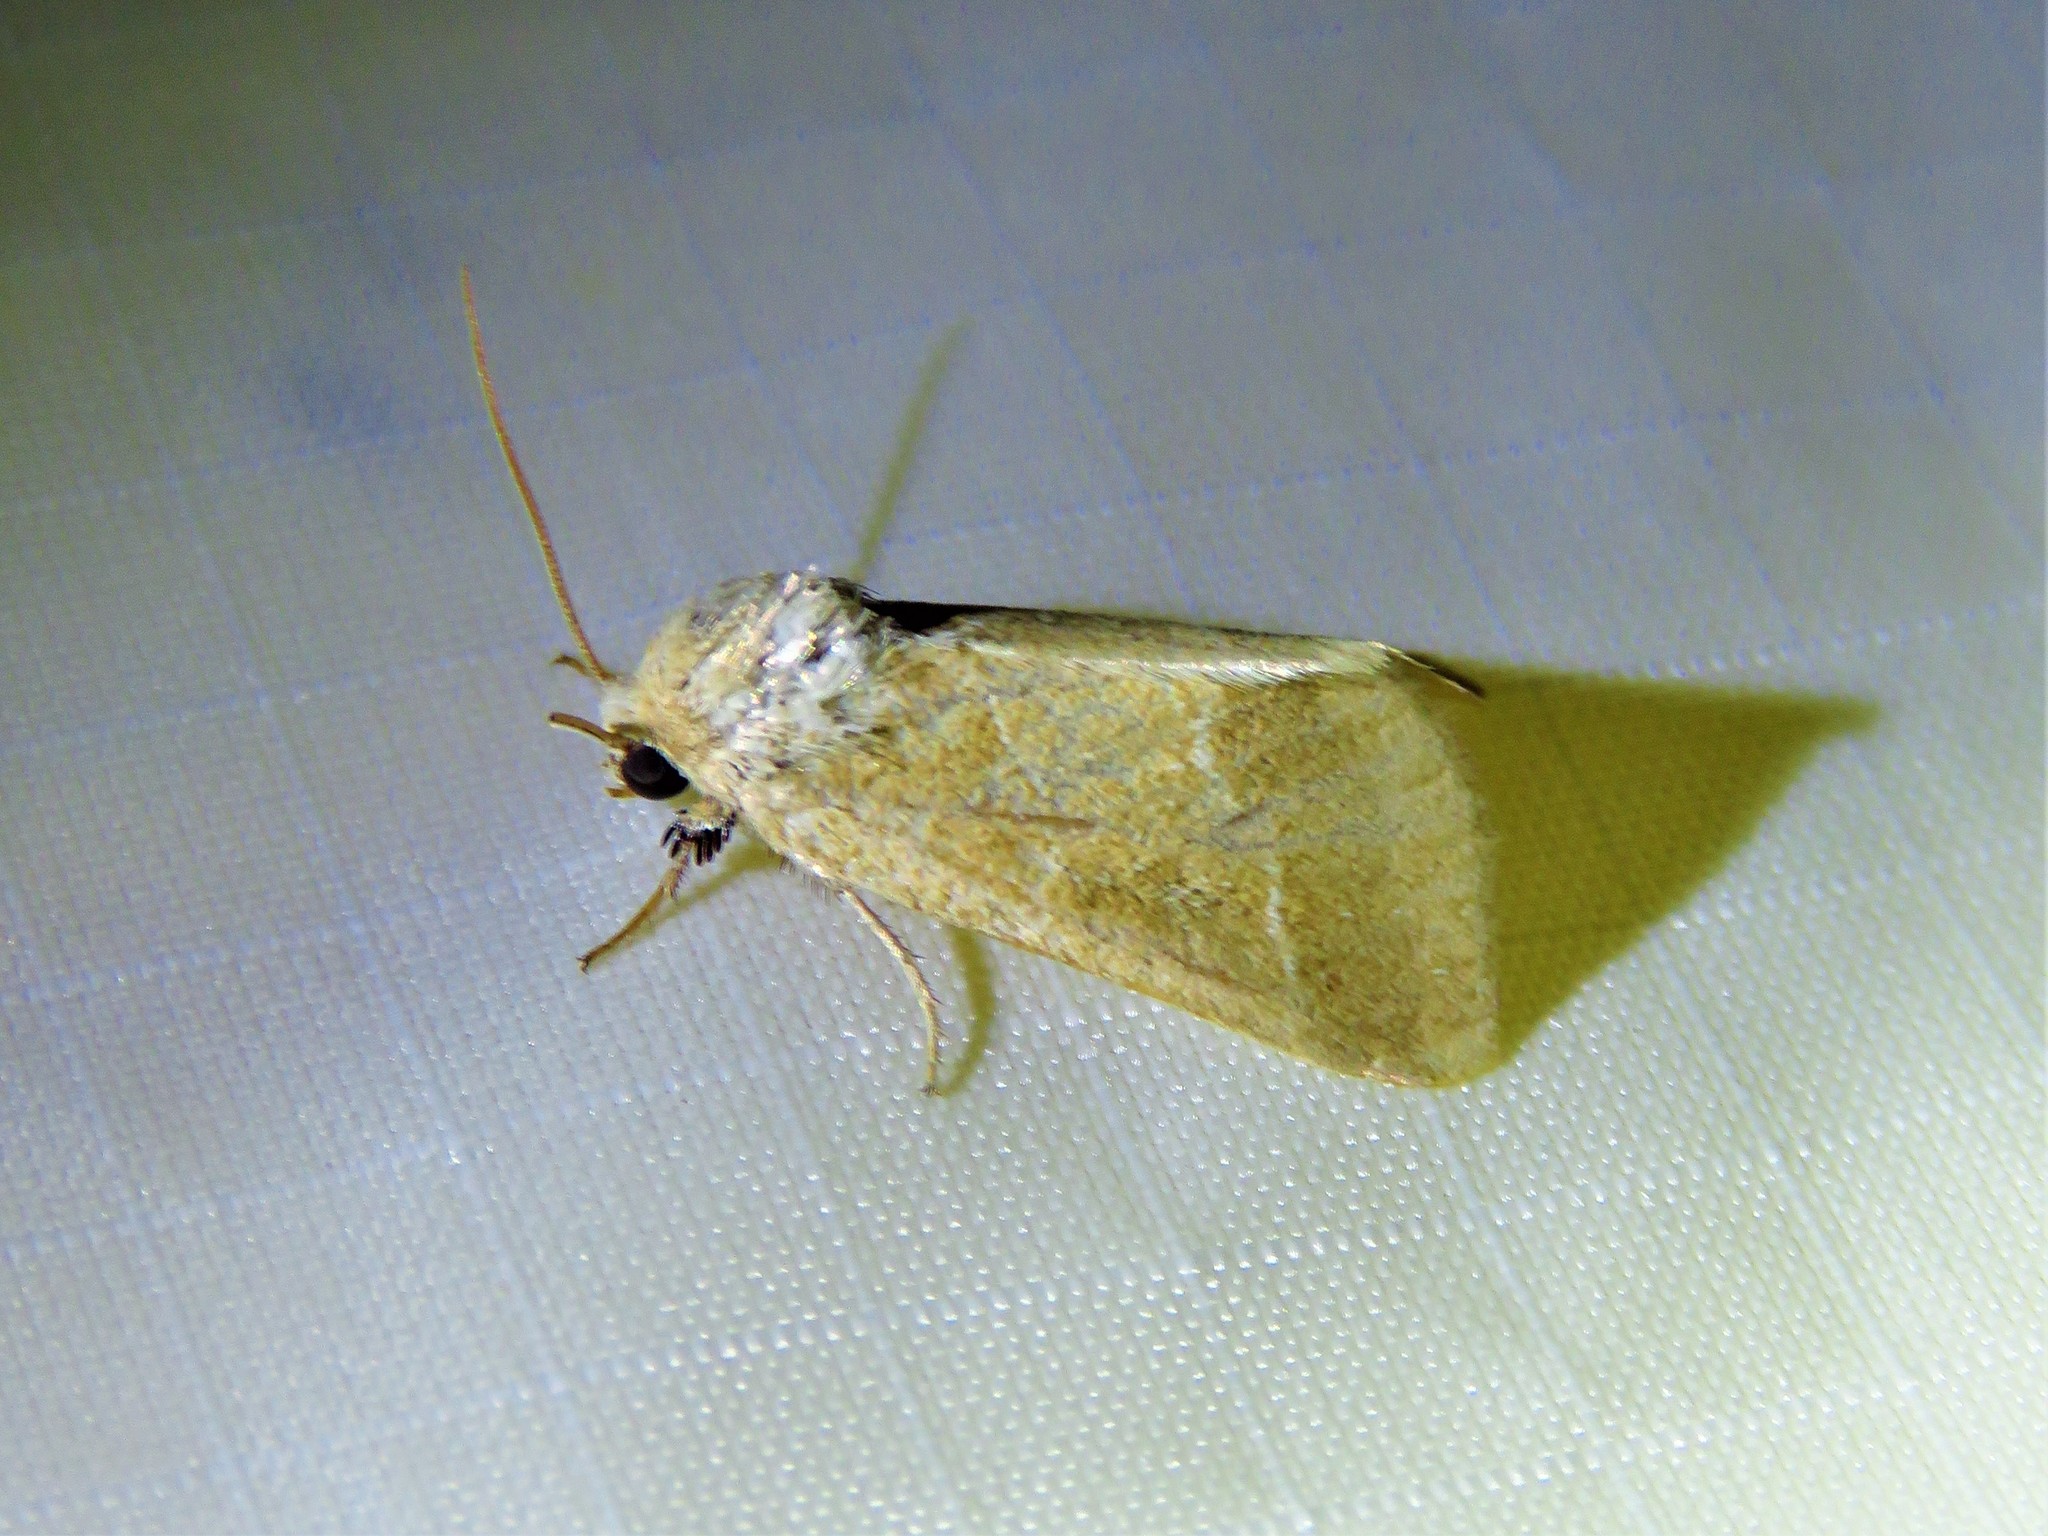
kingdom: Animalia
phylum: Arthropoda
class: Insecta
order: Lepidoptera
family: Noctuidae
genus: Schinia
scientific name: Schinia gracilenta
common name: Slender flower moth
